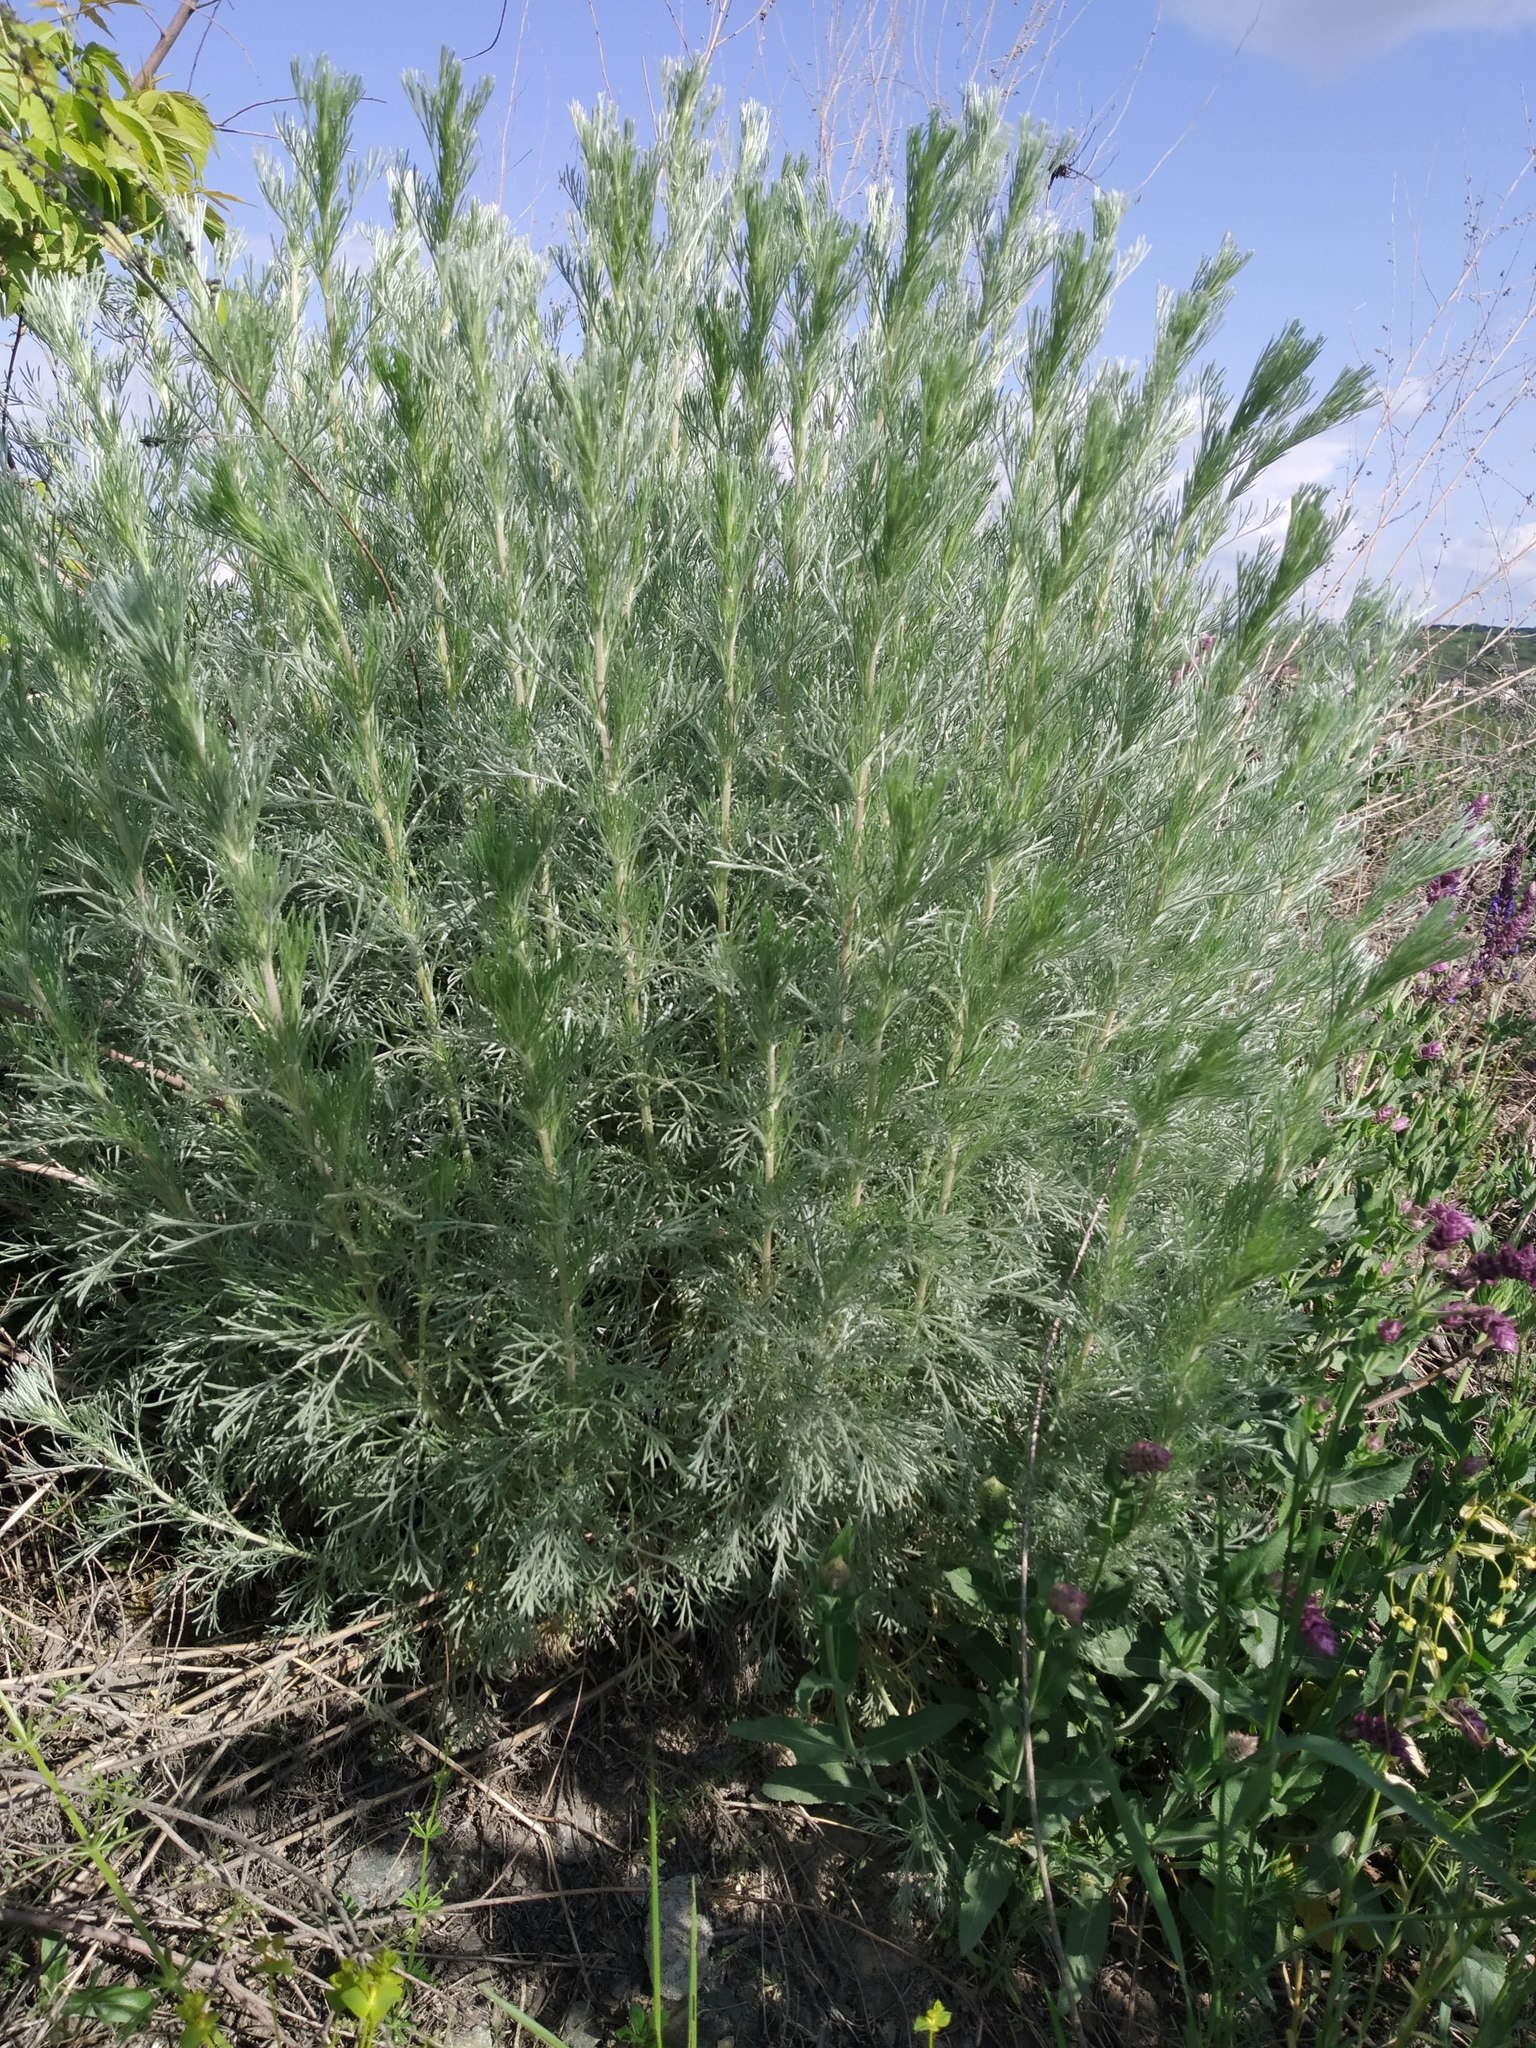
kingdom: Plantae
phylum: Tracheophyta
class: Magnoliopsida
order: Asterales
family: Asteraceae
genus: Artemisia
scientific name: Artemisia marschalliana
